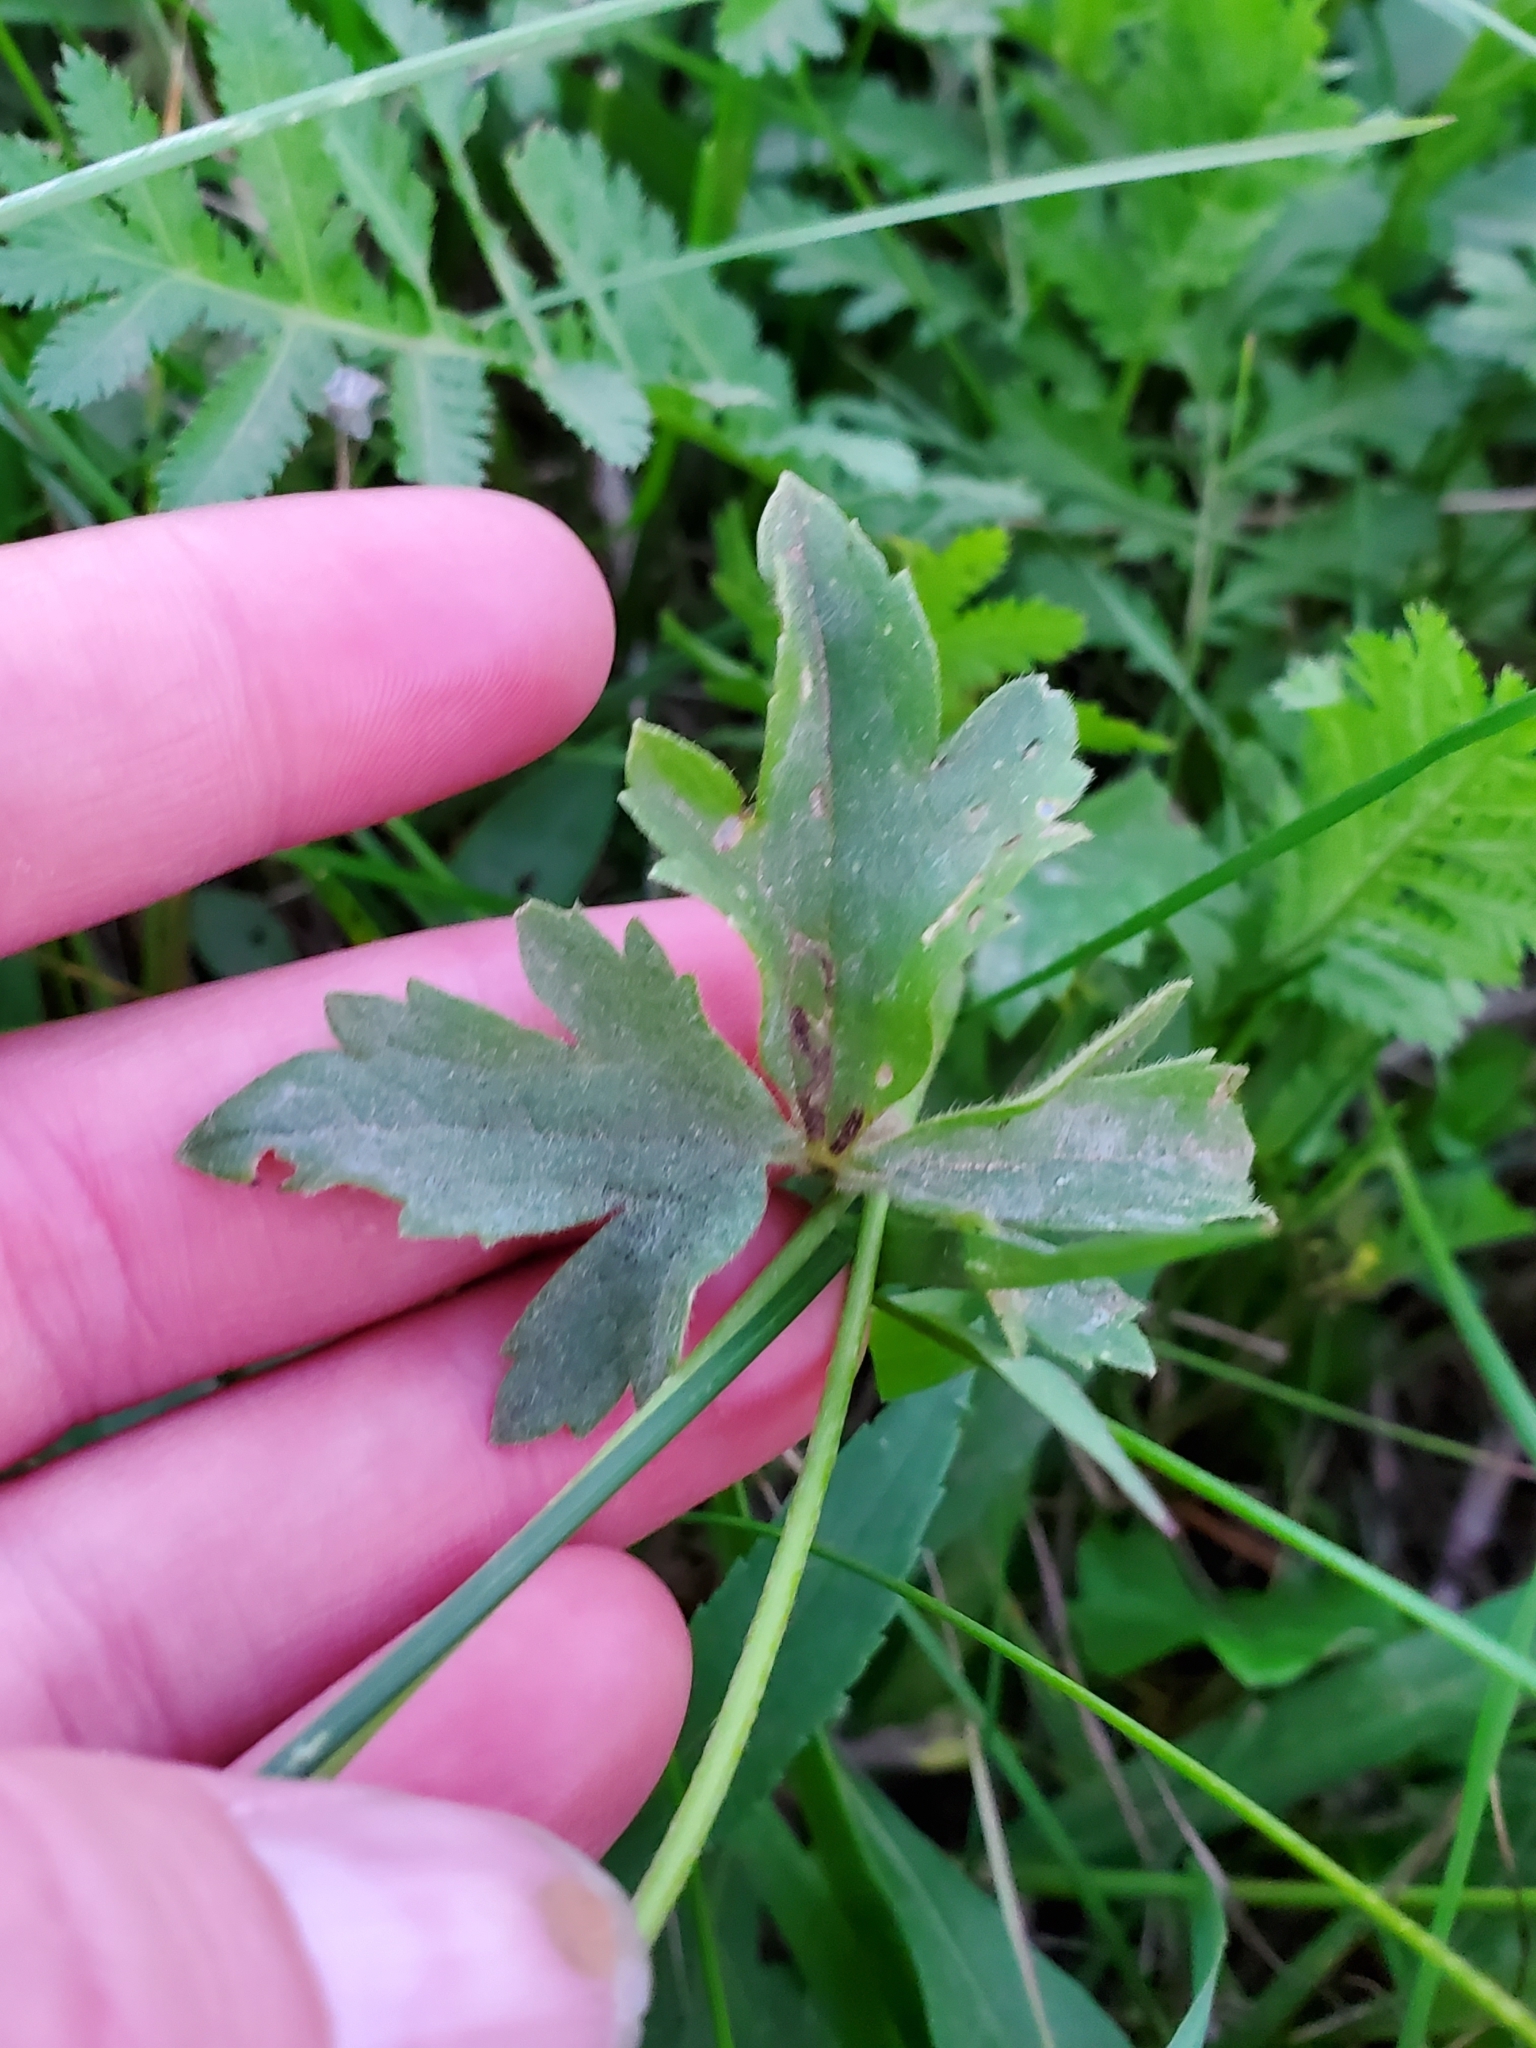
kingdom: Plantae
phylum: Tracheophyta
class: Magnoliopsida
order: Ranunculales
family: Ranunculaceae
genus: Ranunculus
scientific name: Ranunculus acris
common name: Meadow buttercup
